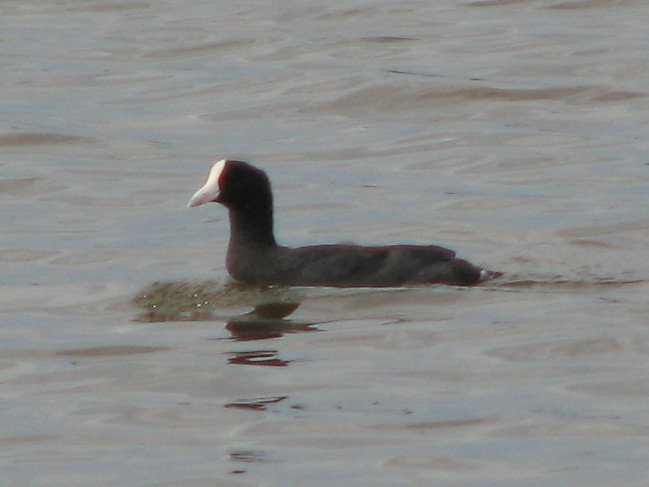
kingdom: Animalia
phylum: Chordata
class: Aves
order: Gruiformes
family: Rallidae
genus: Fulica
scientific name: Fulica alai
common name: Hawaiian coot
